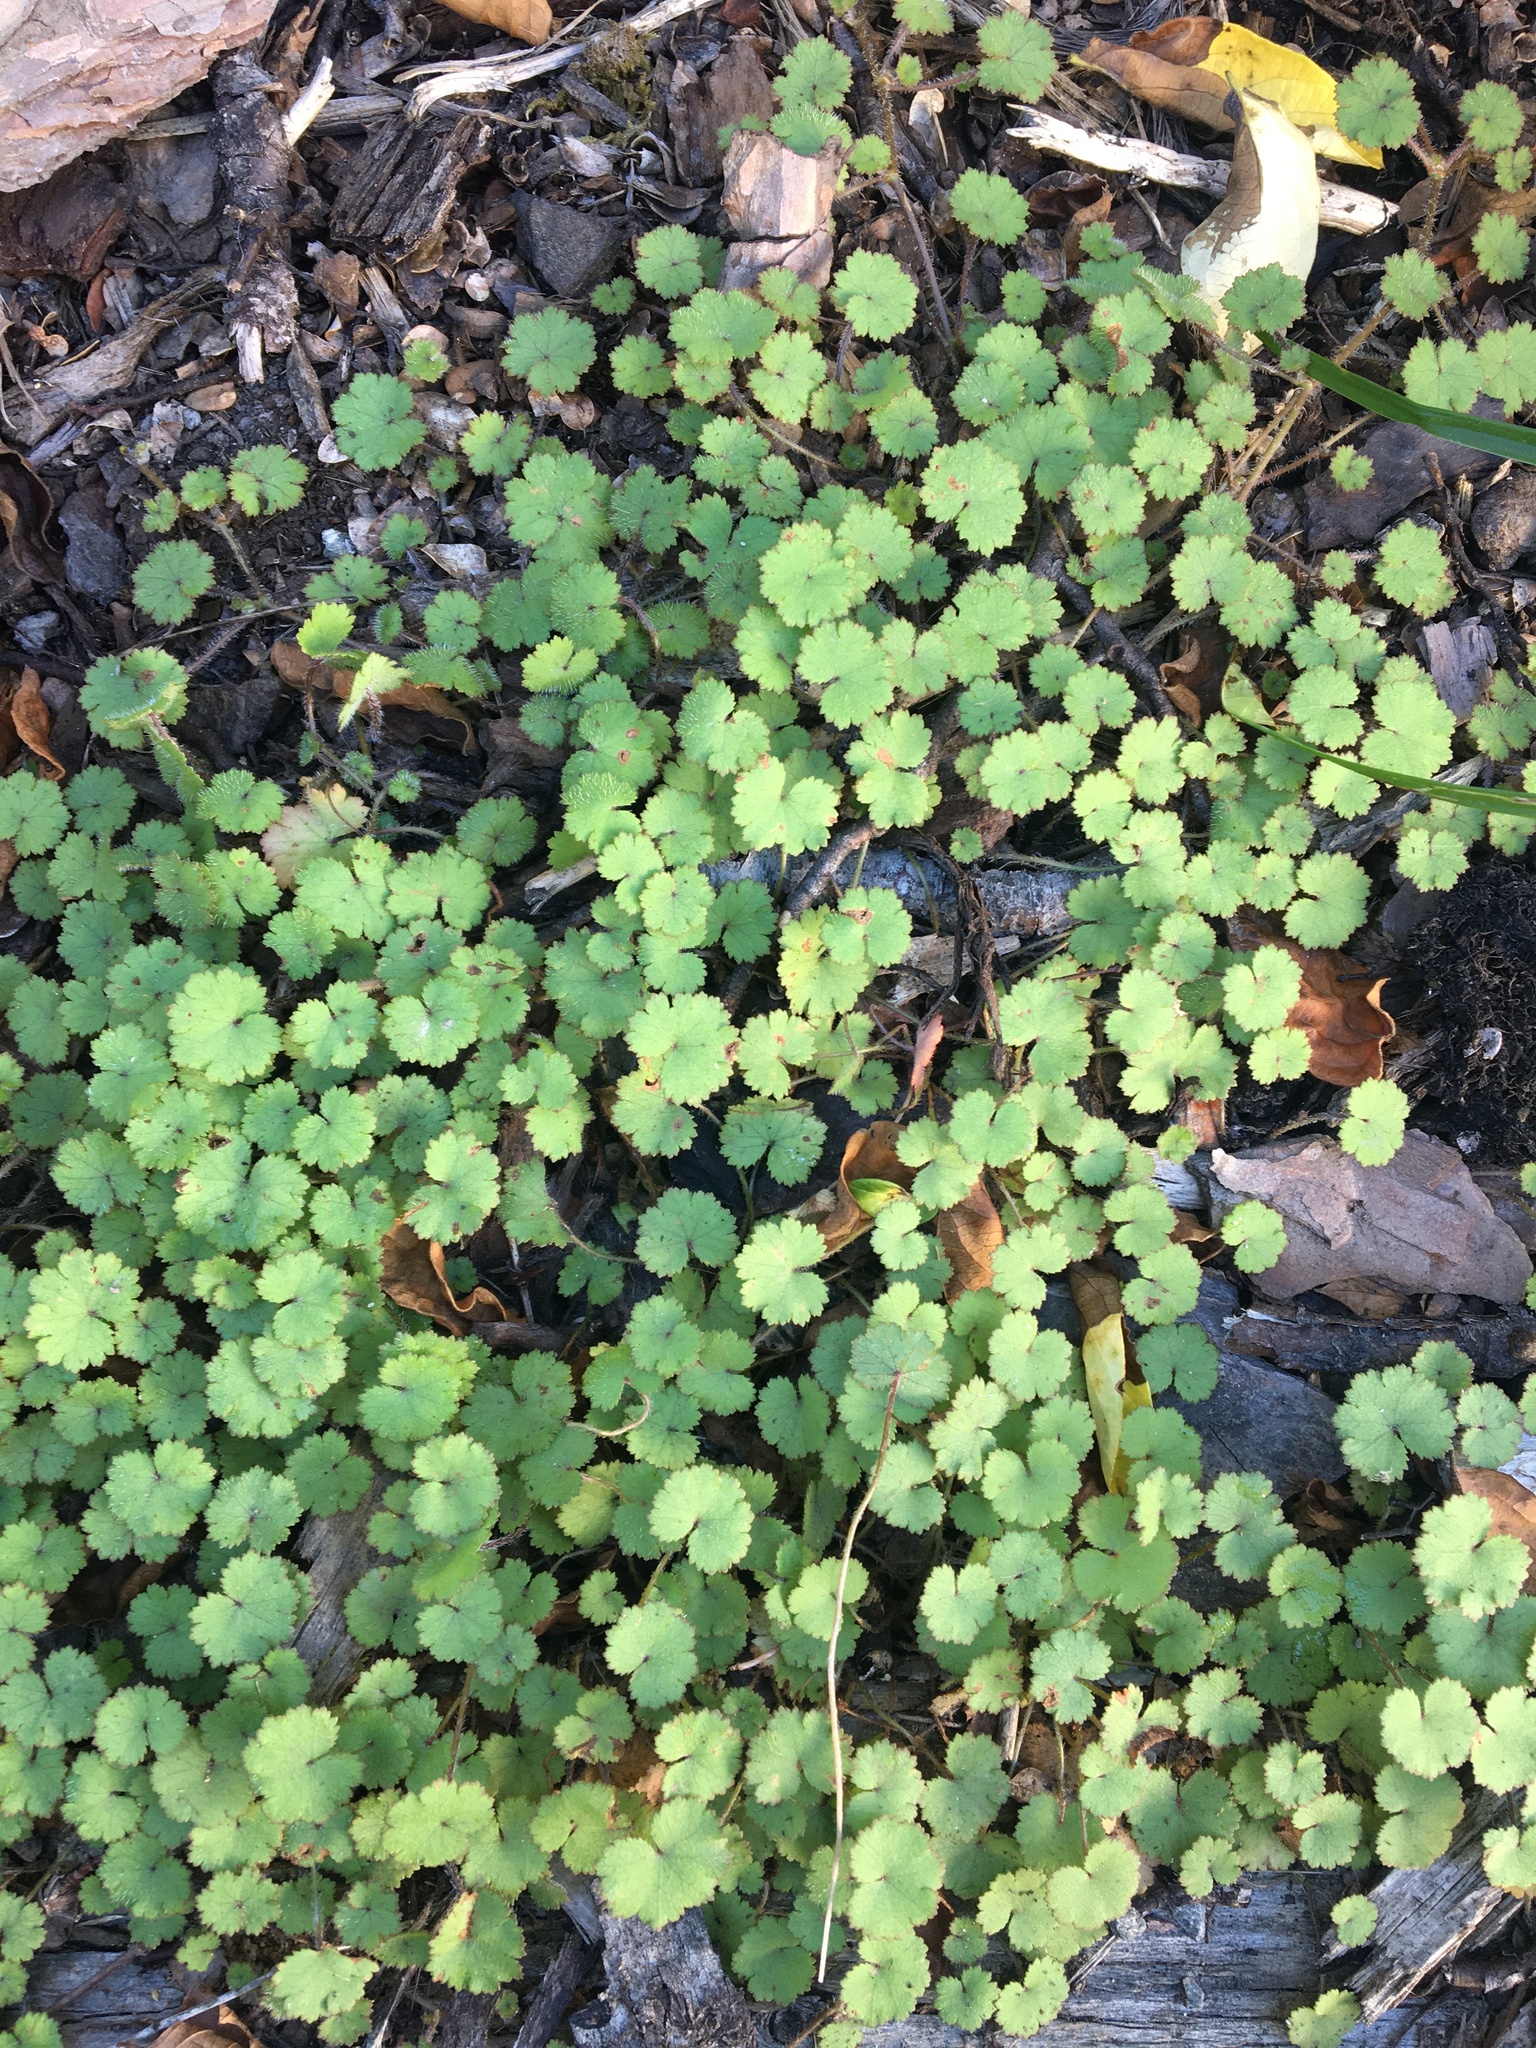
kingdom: Plantae
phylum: Tracheophyta
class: Magnoliopsida
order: Apiales
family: Araliaceae
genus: Hydrocotyle
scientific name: Hydrocotyle moschata
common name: Hairy pennywort
